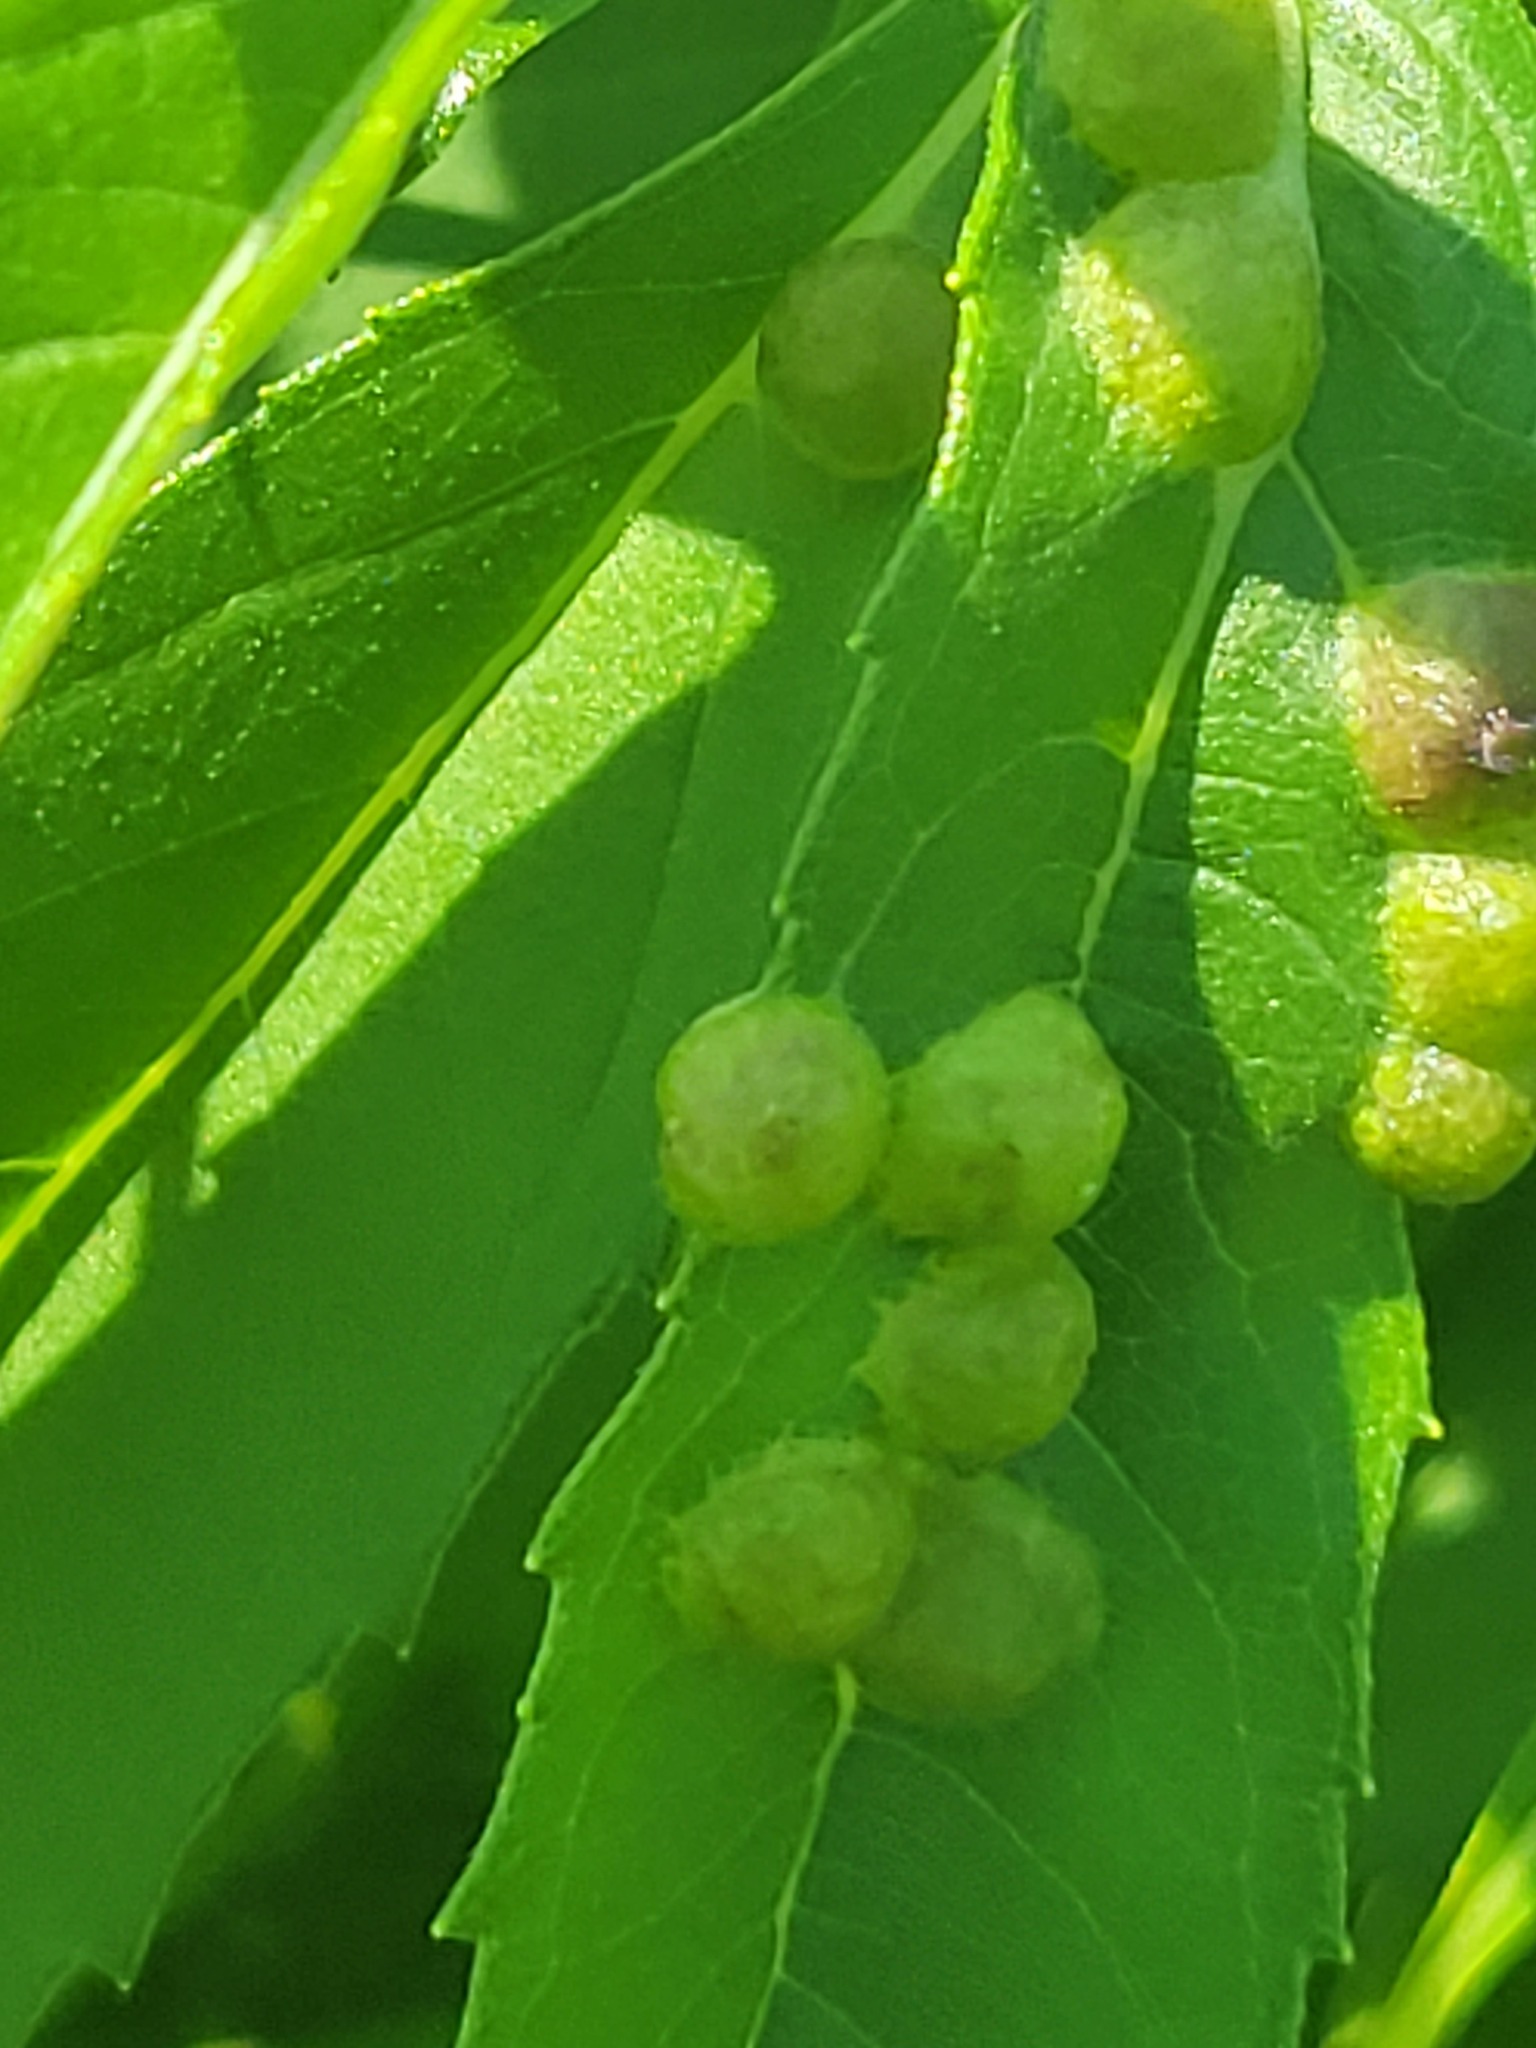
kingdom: Animalia
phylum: Arthropoda
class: Insecta
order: Diptera
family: Cecidomyiidae
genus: Pilodiplosis
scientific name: Pilodiplosis helianthibulla
